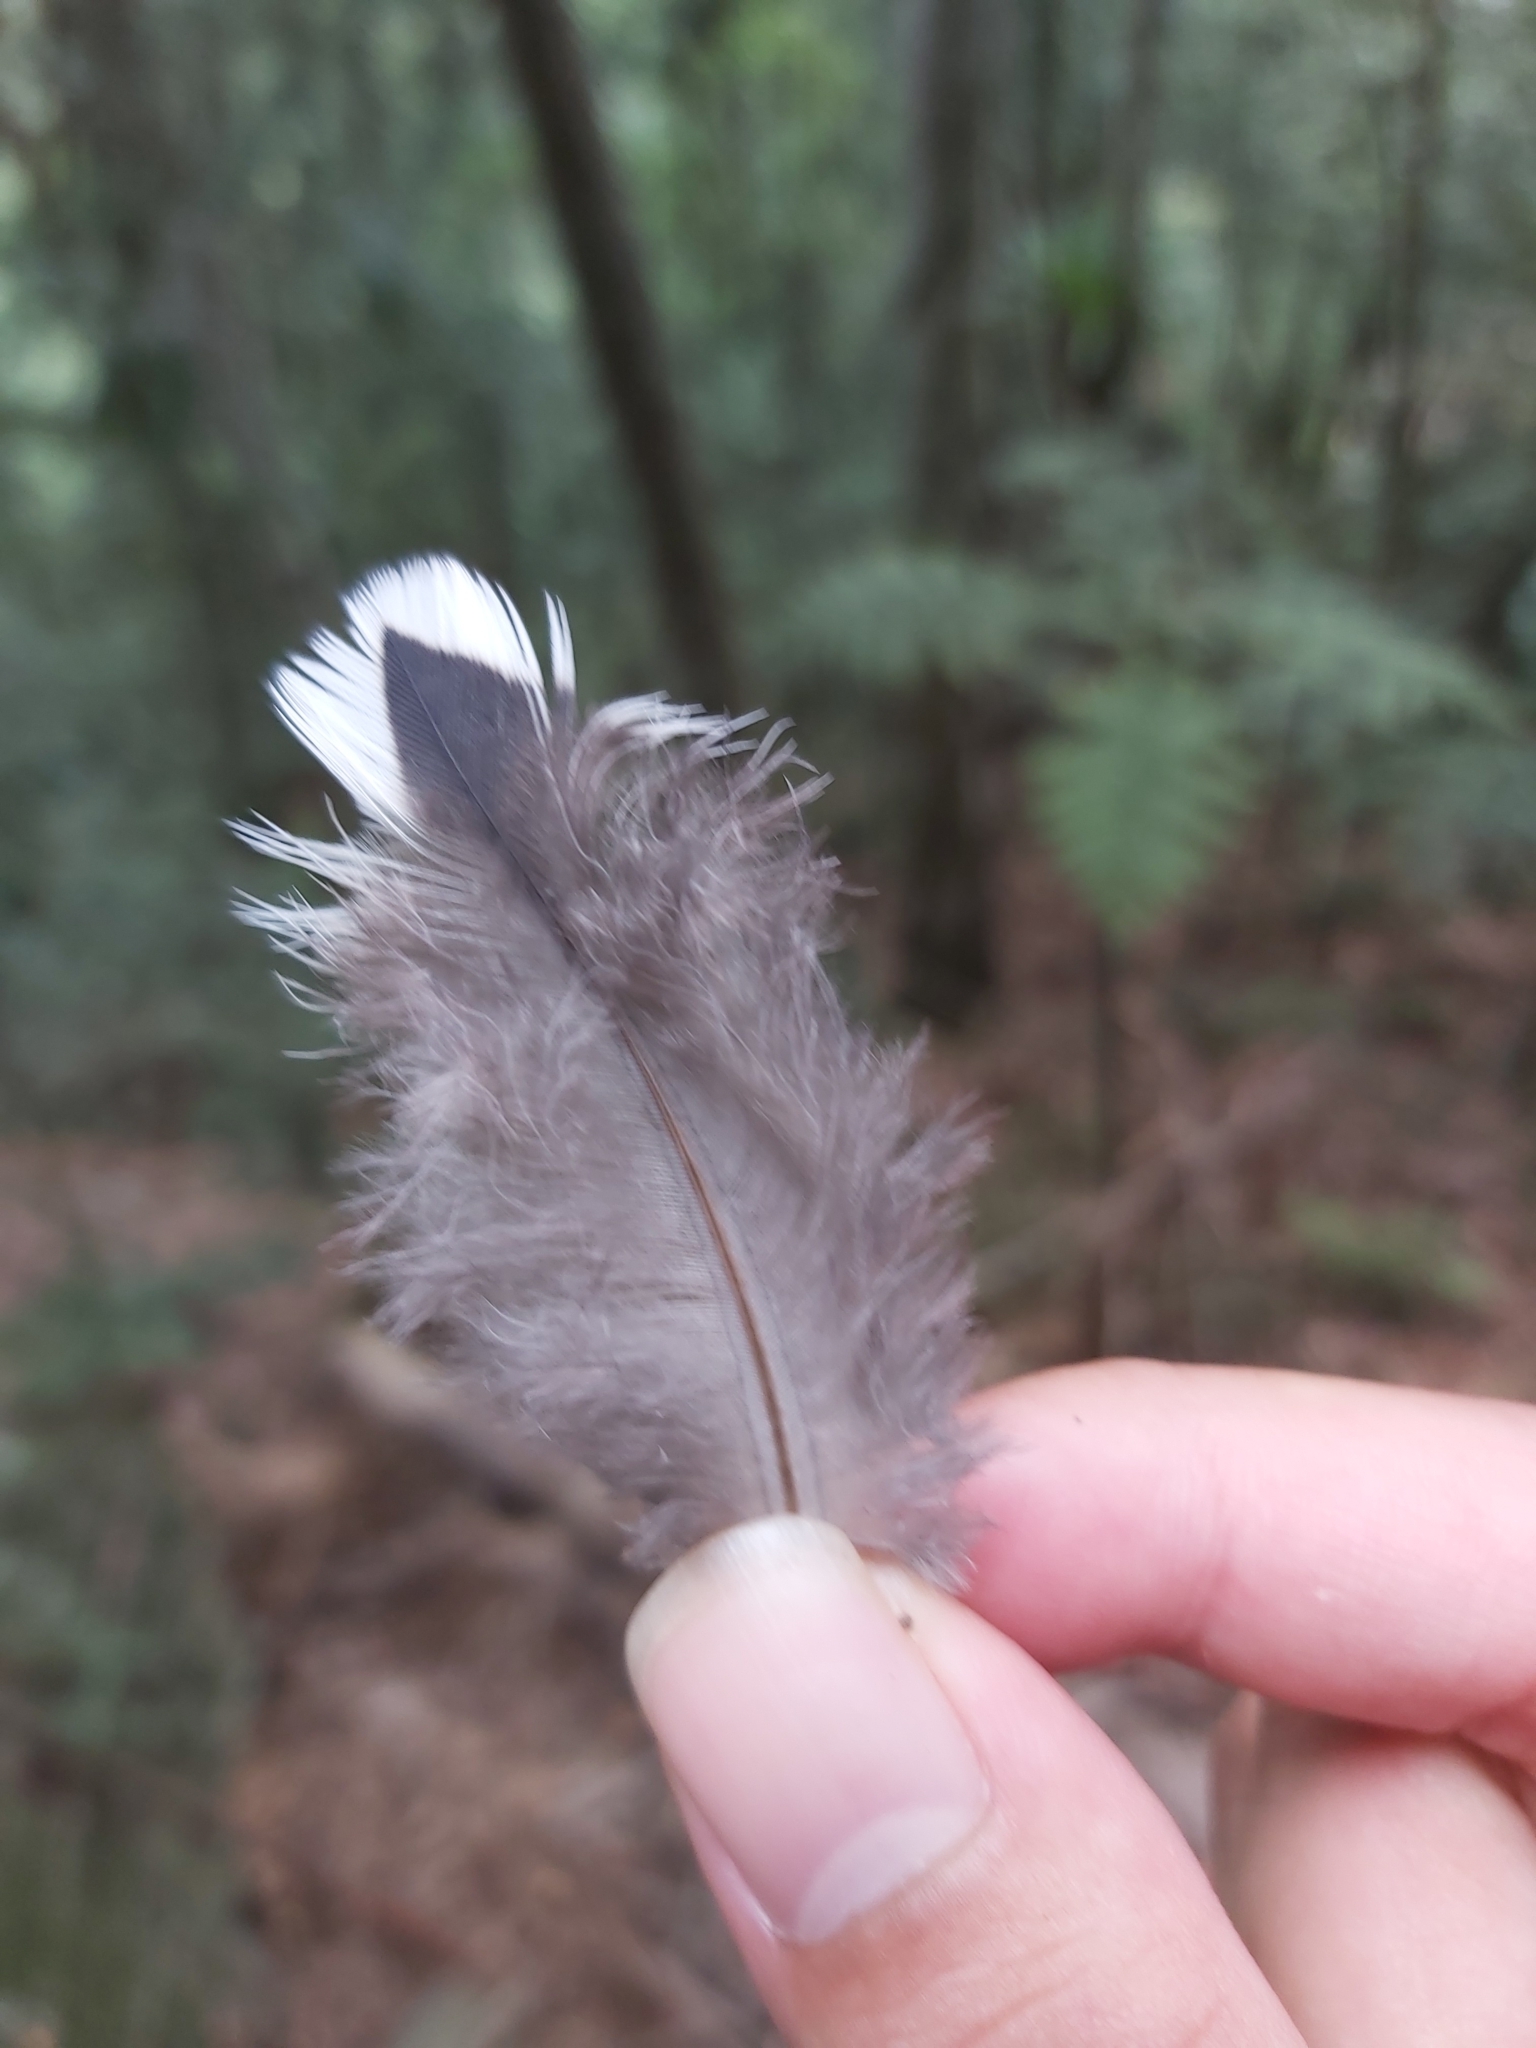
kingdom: Animalia
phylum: Chordata
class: Aves
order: Columbiformes
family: Columbidae
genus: Leucosarcia
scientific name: Leucosarcia melanoleuca
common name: Wonga pigeon
